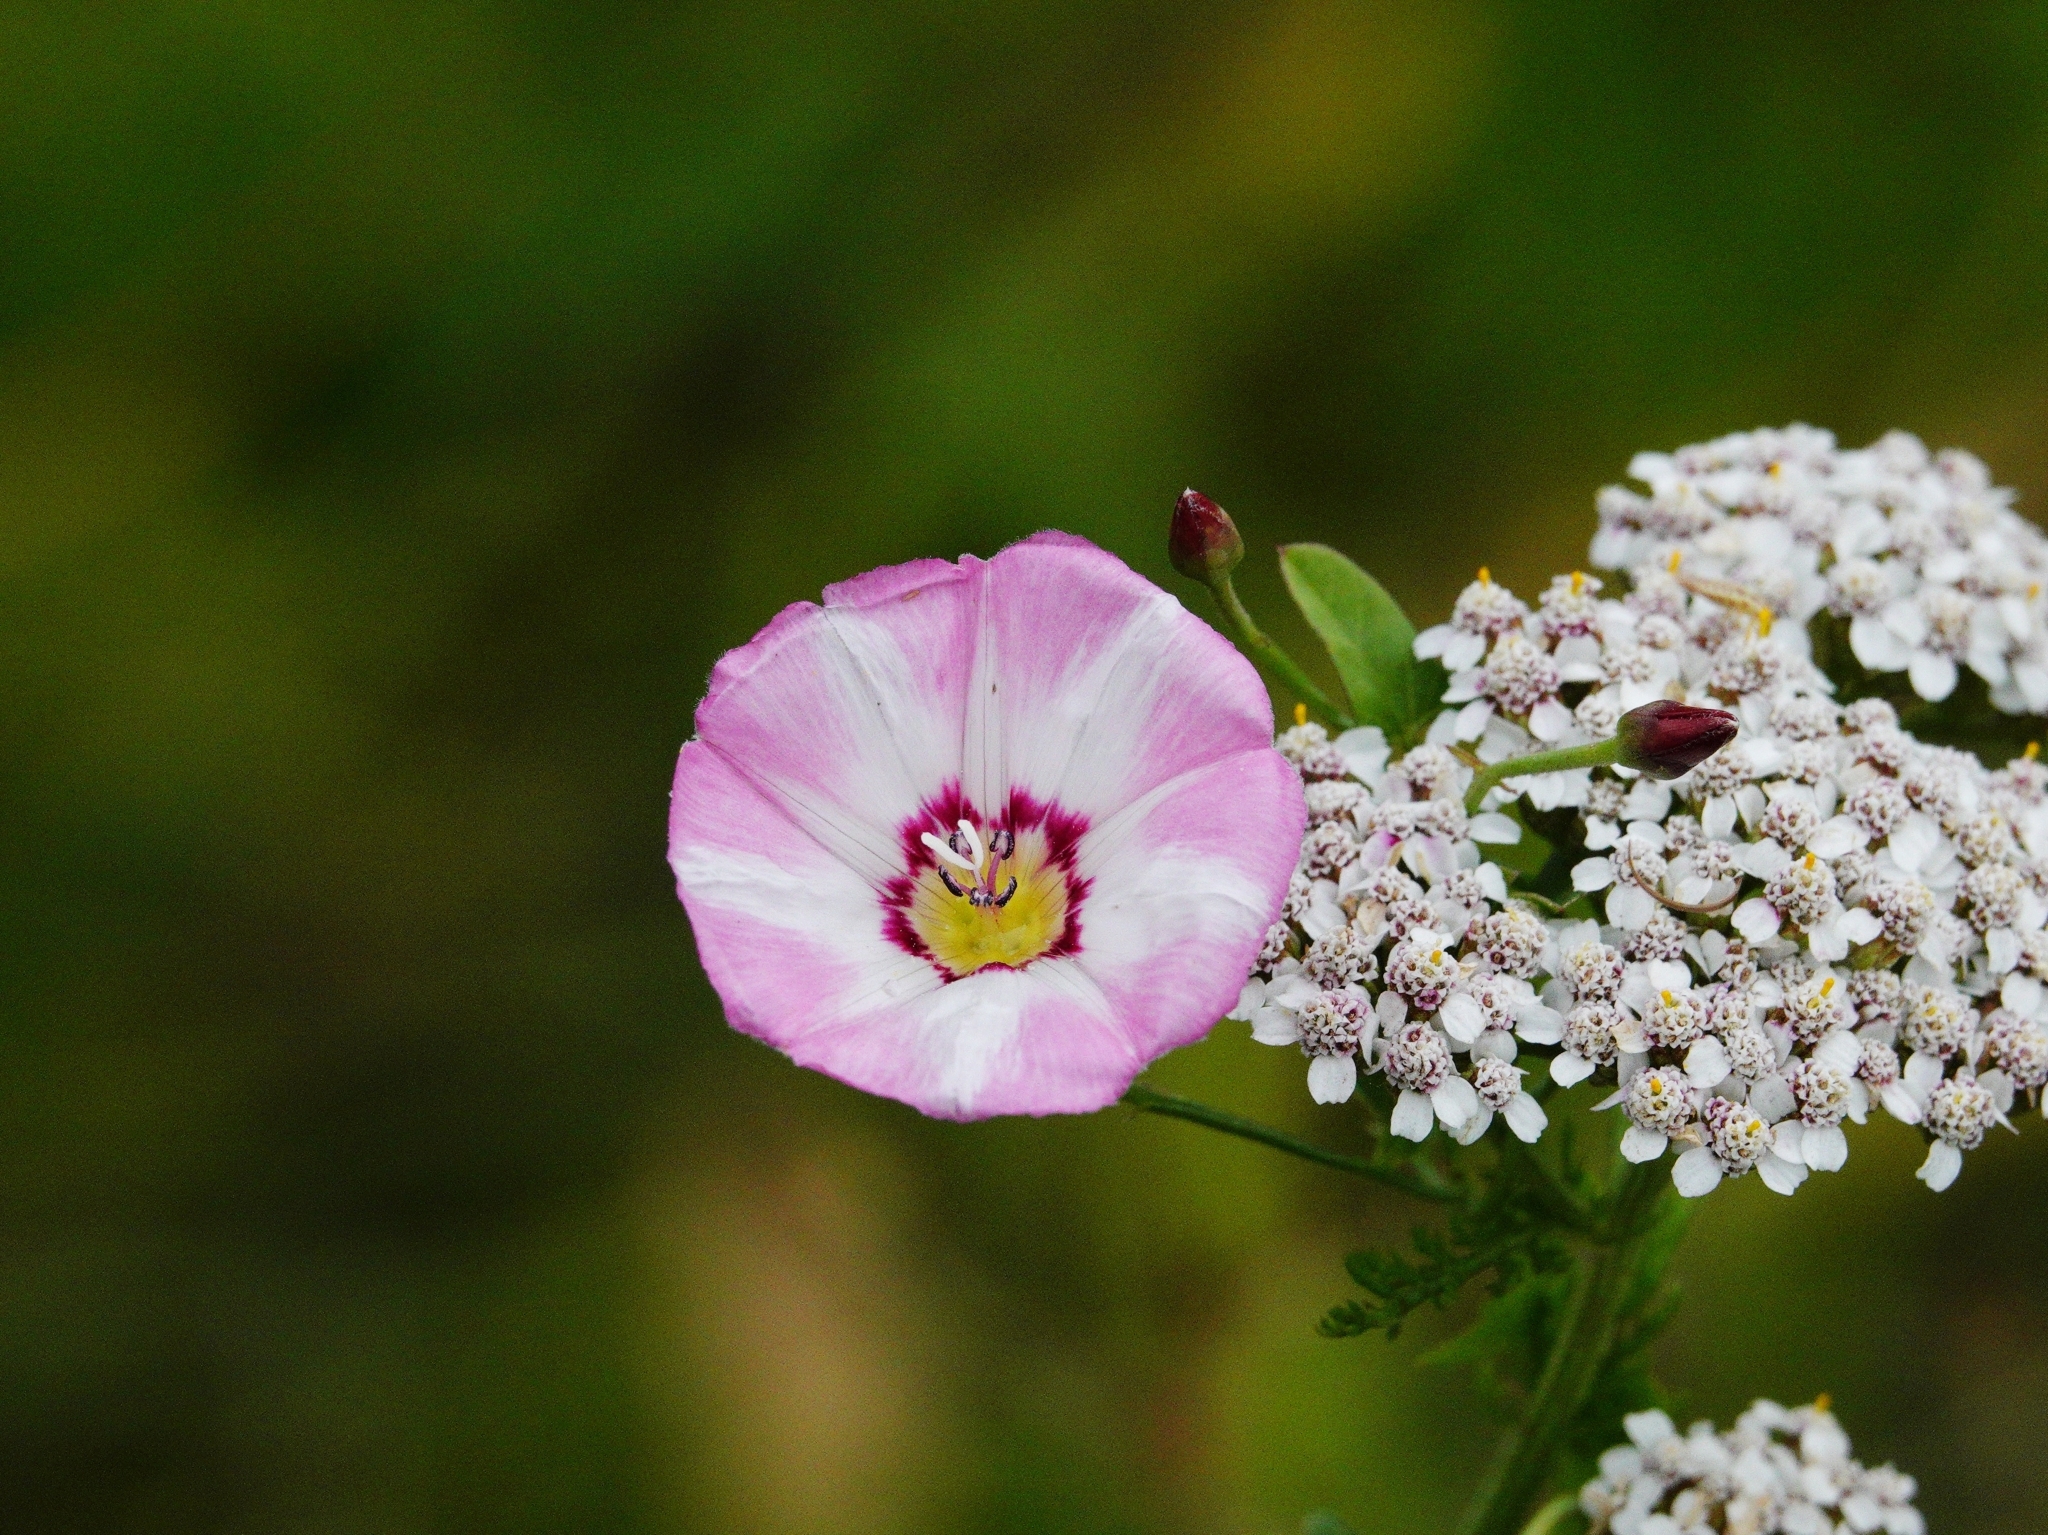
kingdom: Plantae
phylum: Tracheophyta
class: Magnoliopsida
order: Solanales
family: Convolvulaceae
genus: Convolvulus
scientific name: Convolvulus arvensis
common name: Field bindweed
